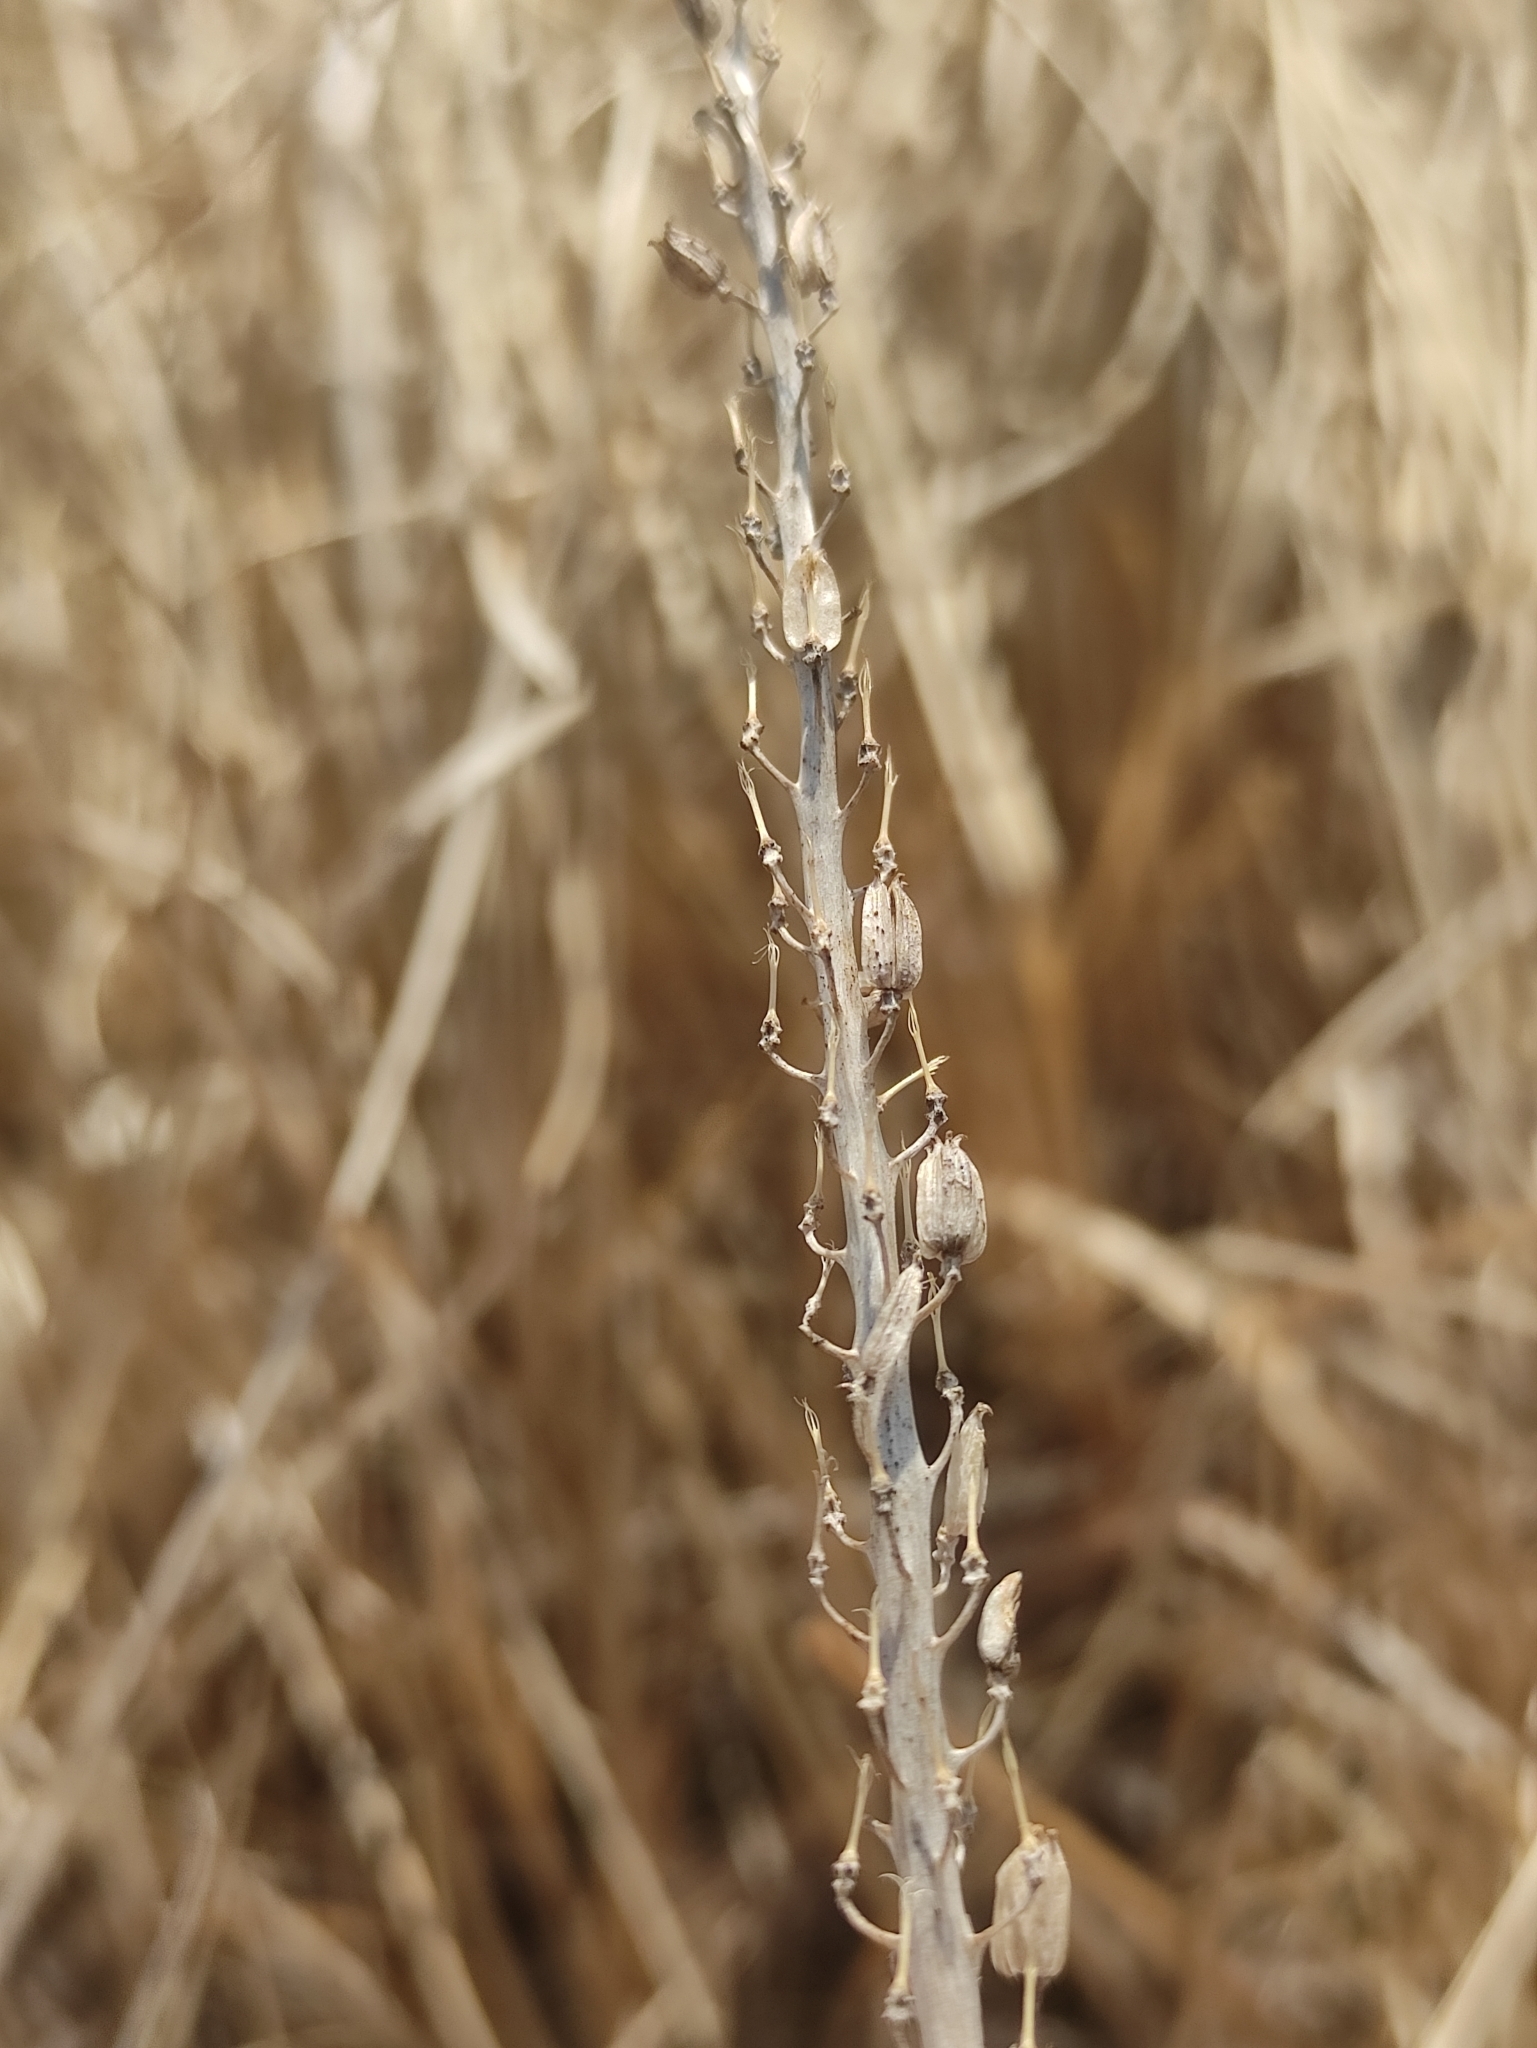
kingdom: Plantae
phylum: Tracheophyta
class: Liliopsida
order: Alismatales
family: Juncaginaceae
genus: Triglochin
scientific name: Triglochin maritima
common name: Sea arrowgrass
